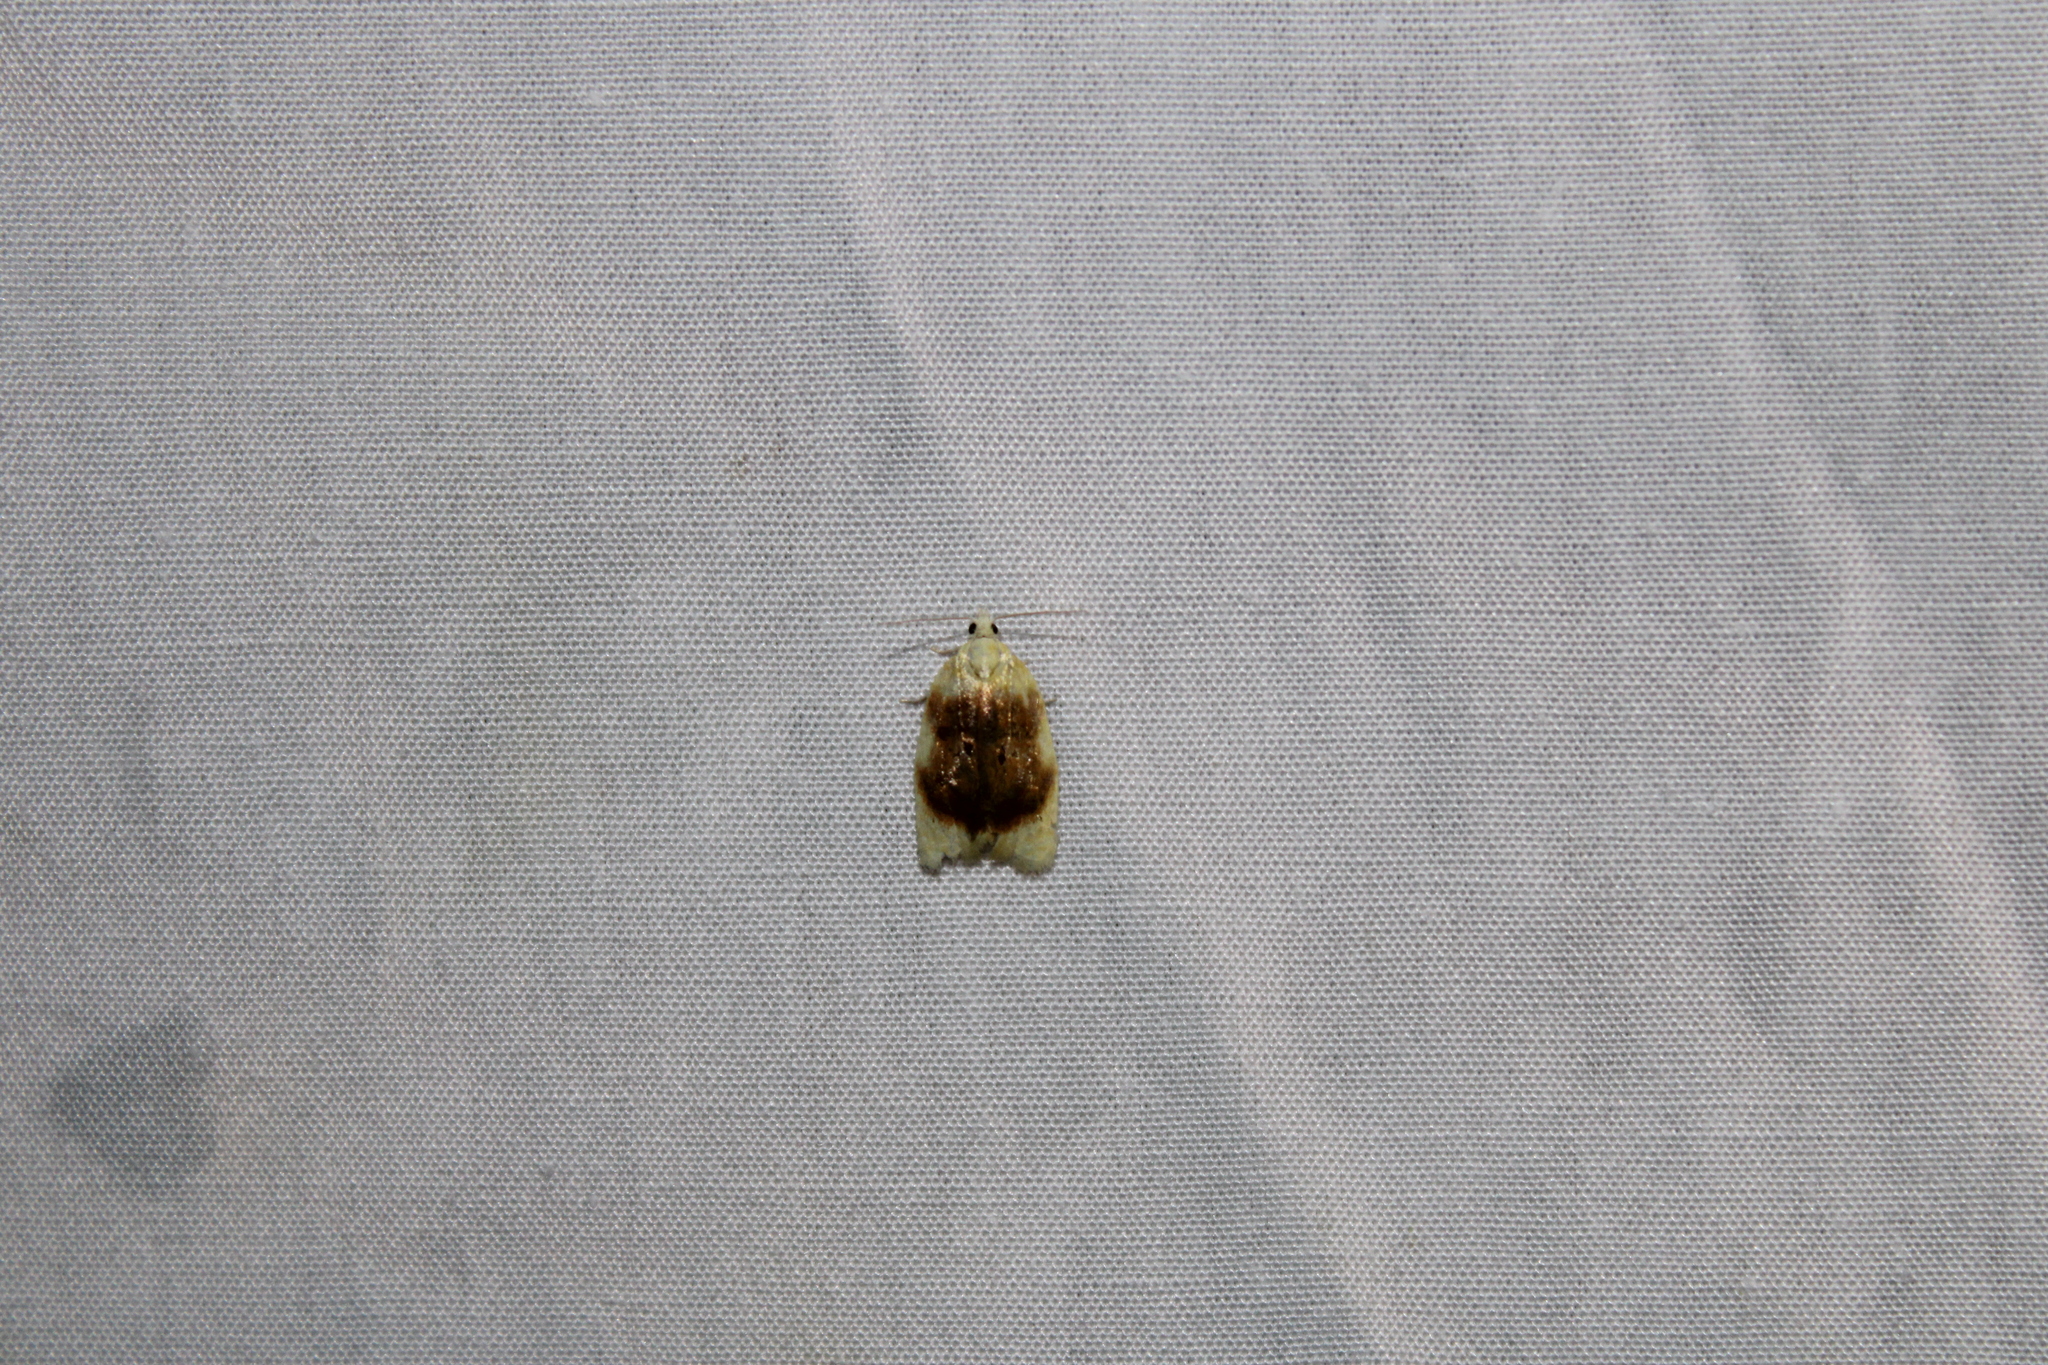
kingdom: Animalia
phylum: Arthropoda
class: Insecta
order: Lepidoptera
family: Tortricidae
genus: Acleris
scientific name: Acleris semipurpurana
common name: Oak leaftier moth
